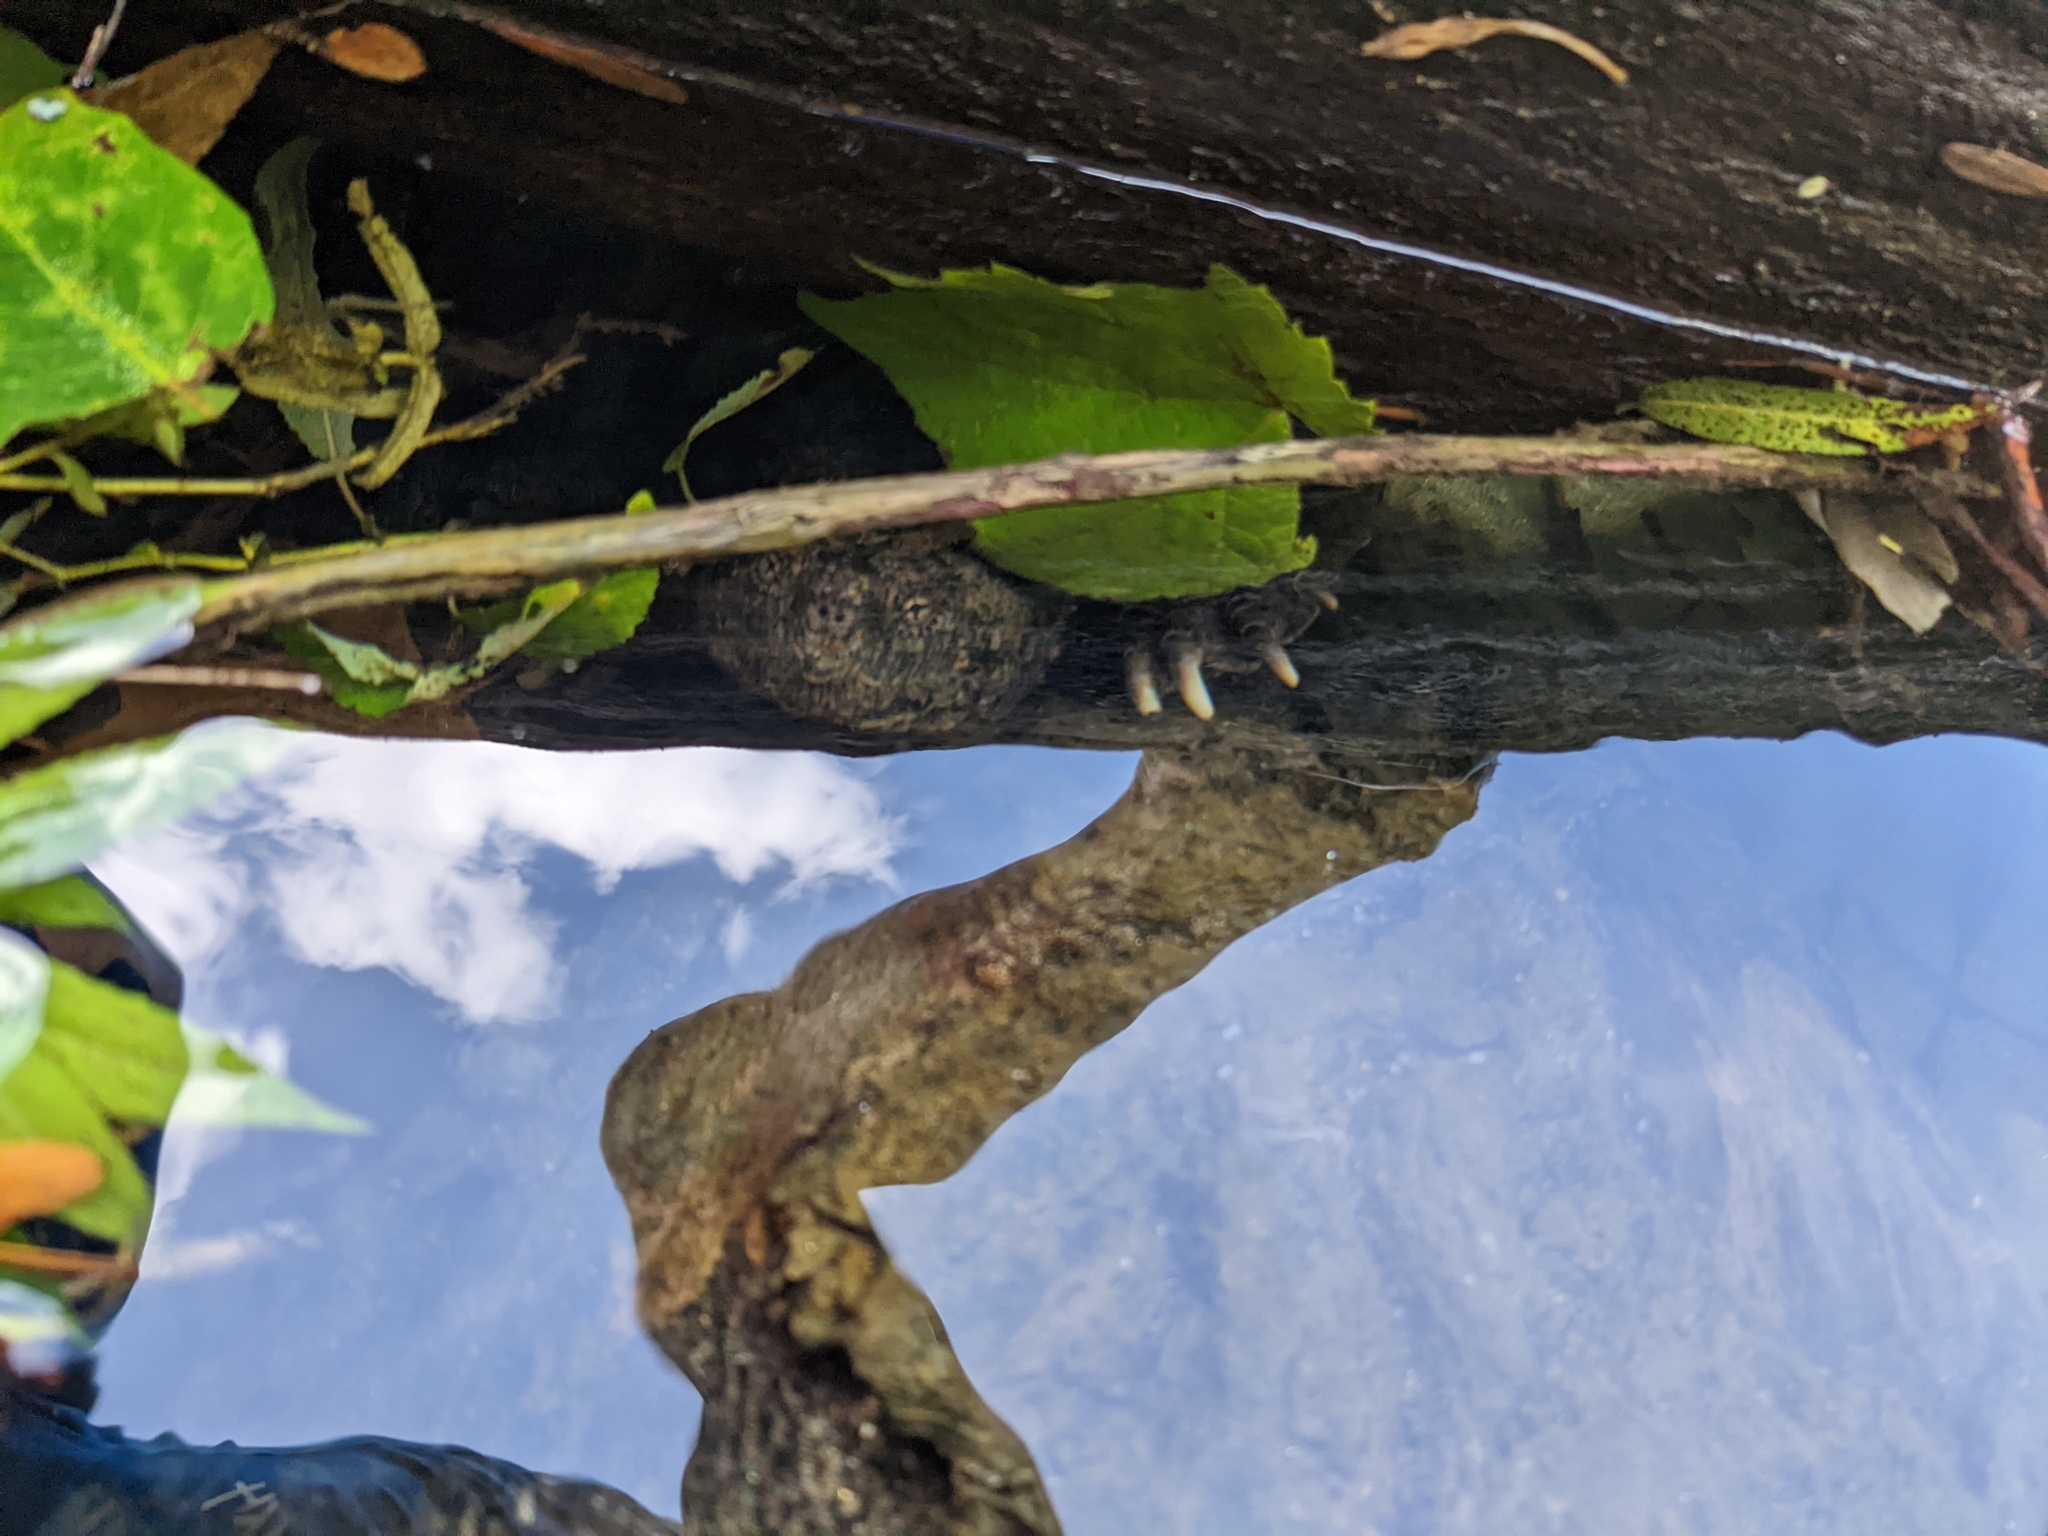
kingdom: Animalia
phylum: Chordata
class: Testudines
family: Chelydridae
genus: Chelydra
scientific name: Chelydra serpentina
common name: Common snapping turtle
